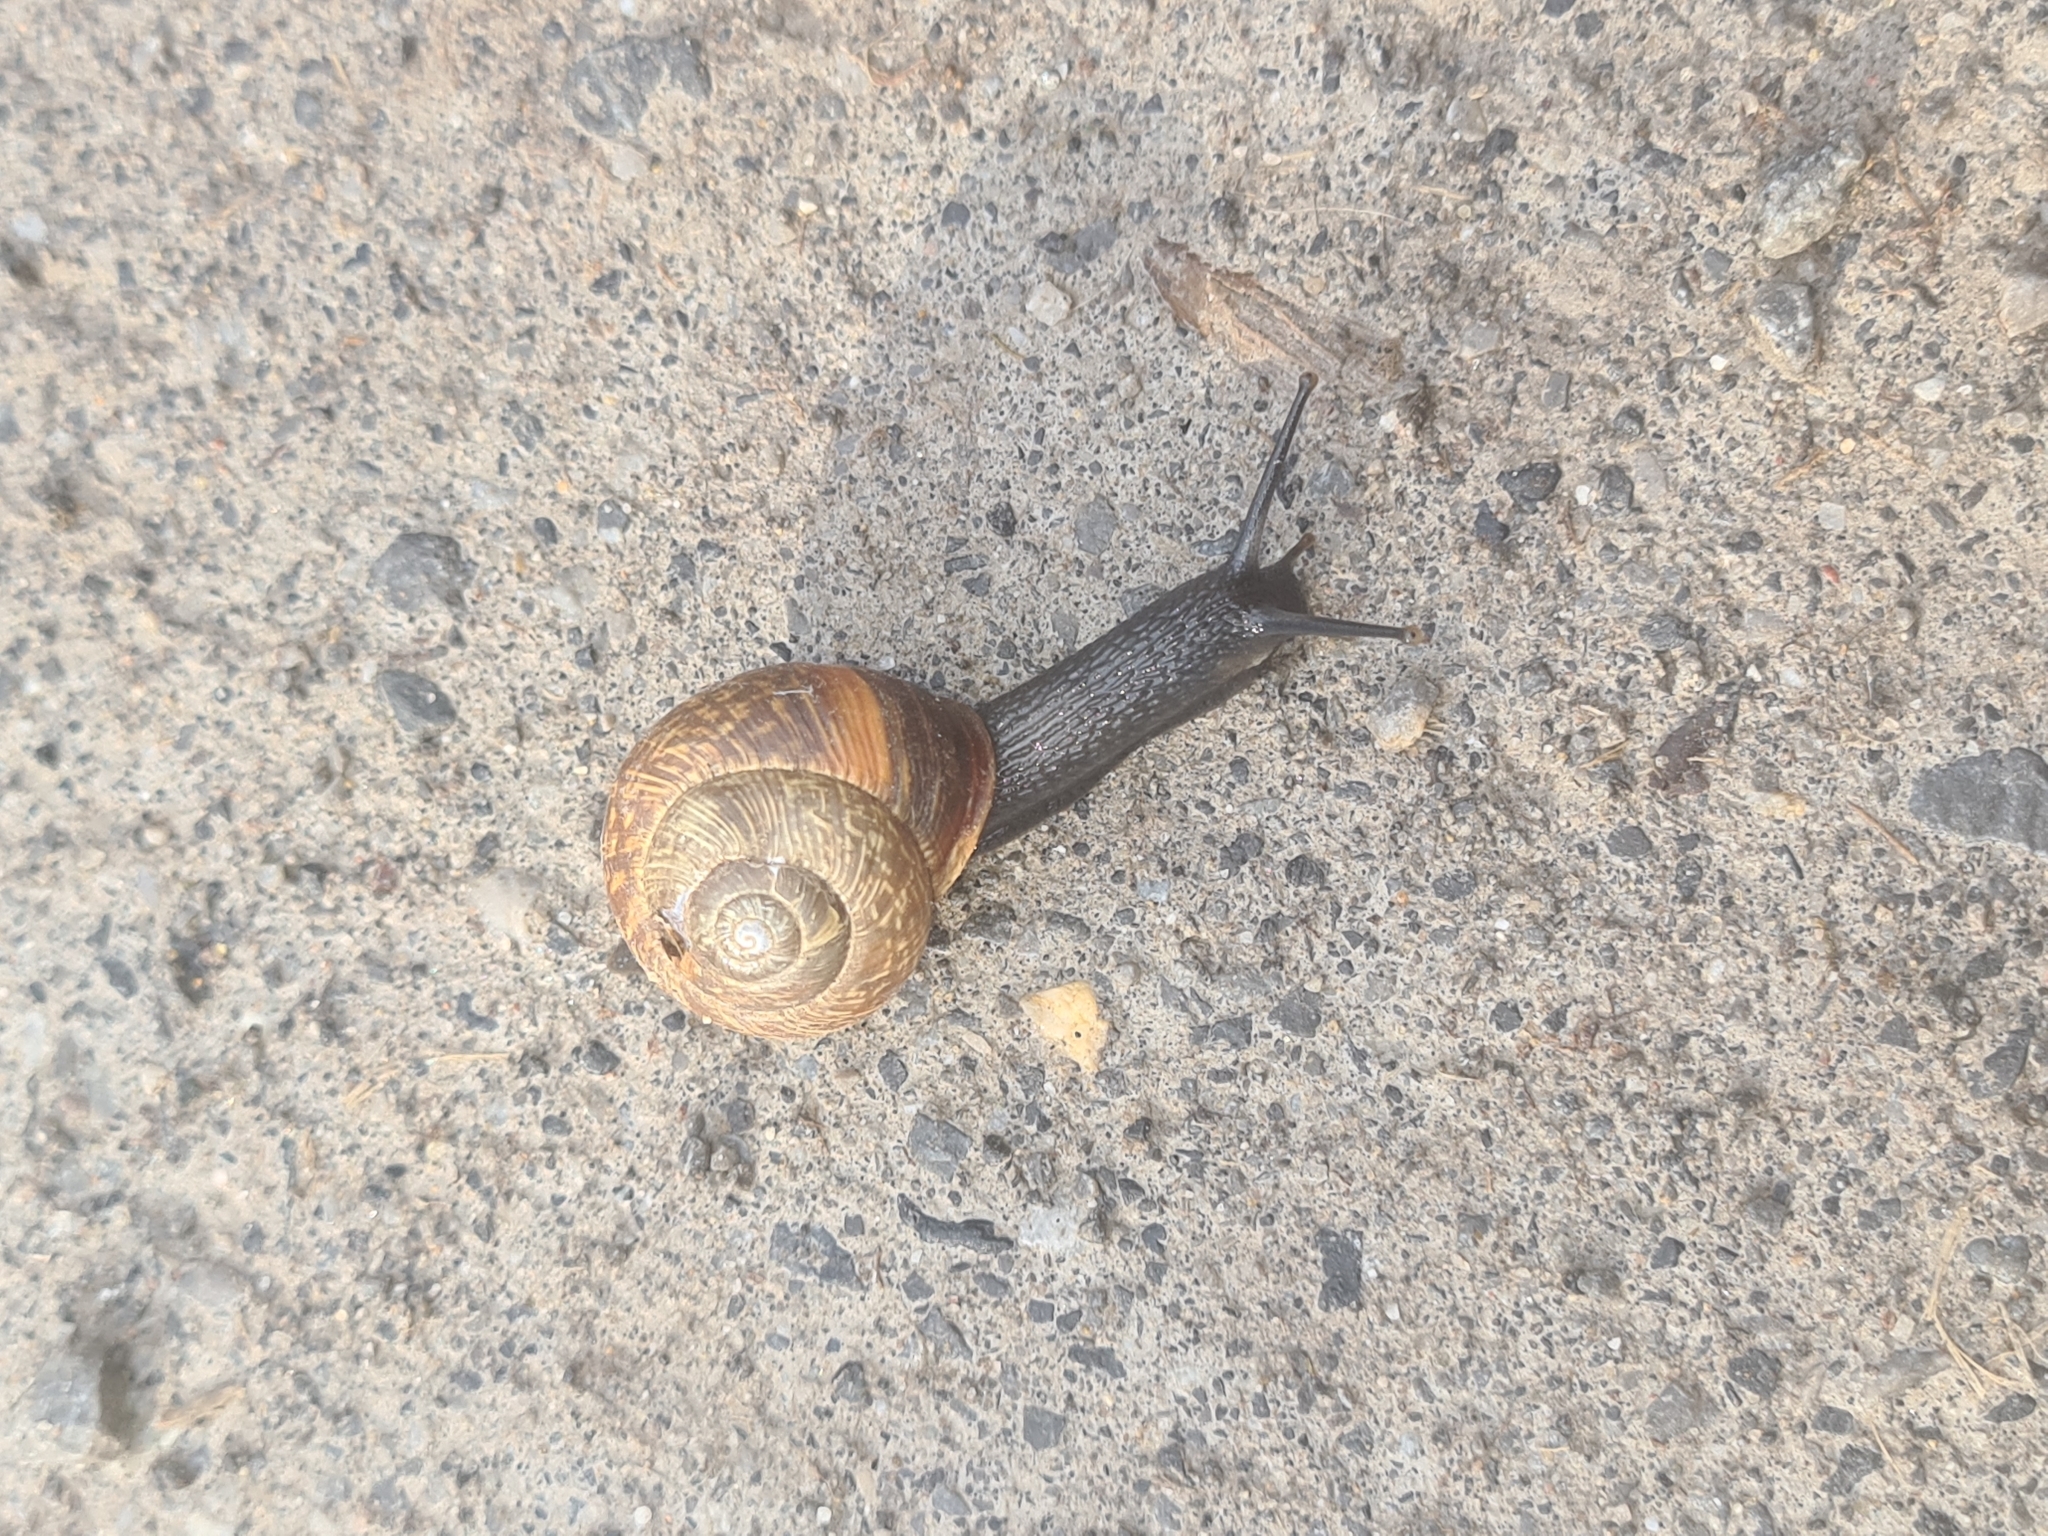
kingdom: Animalia
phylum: Mollusca
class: Gastropoda
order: Stylommatophora
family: Helicidae
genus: Arianta
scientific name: Arianta arbustorum
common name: Copse snail
